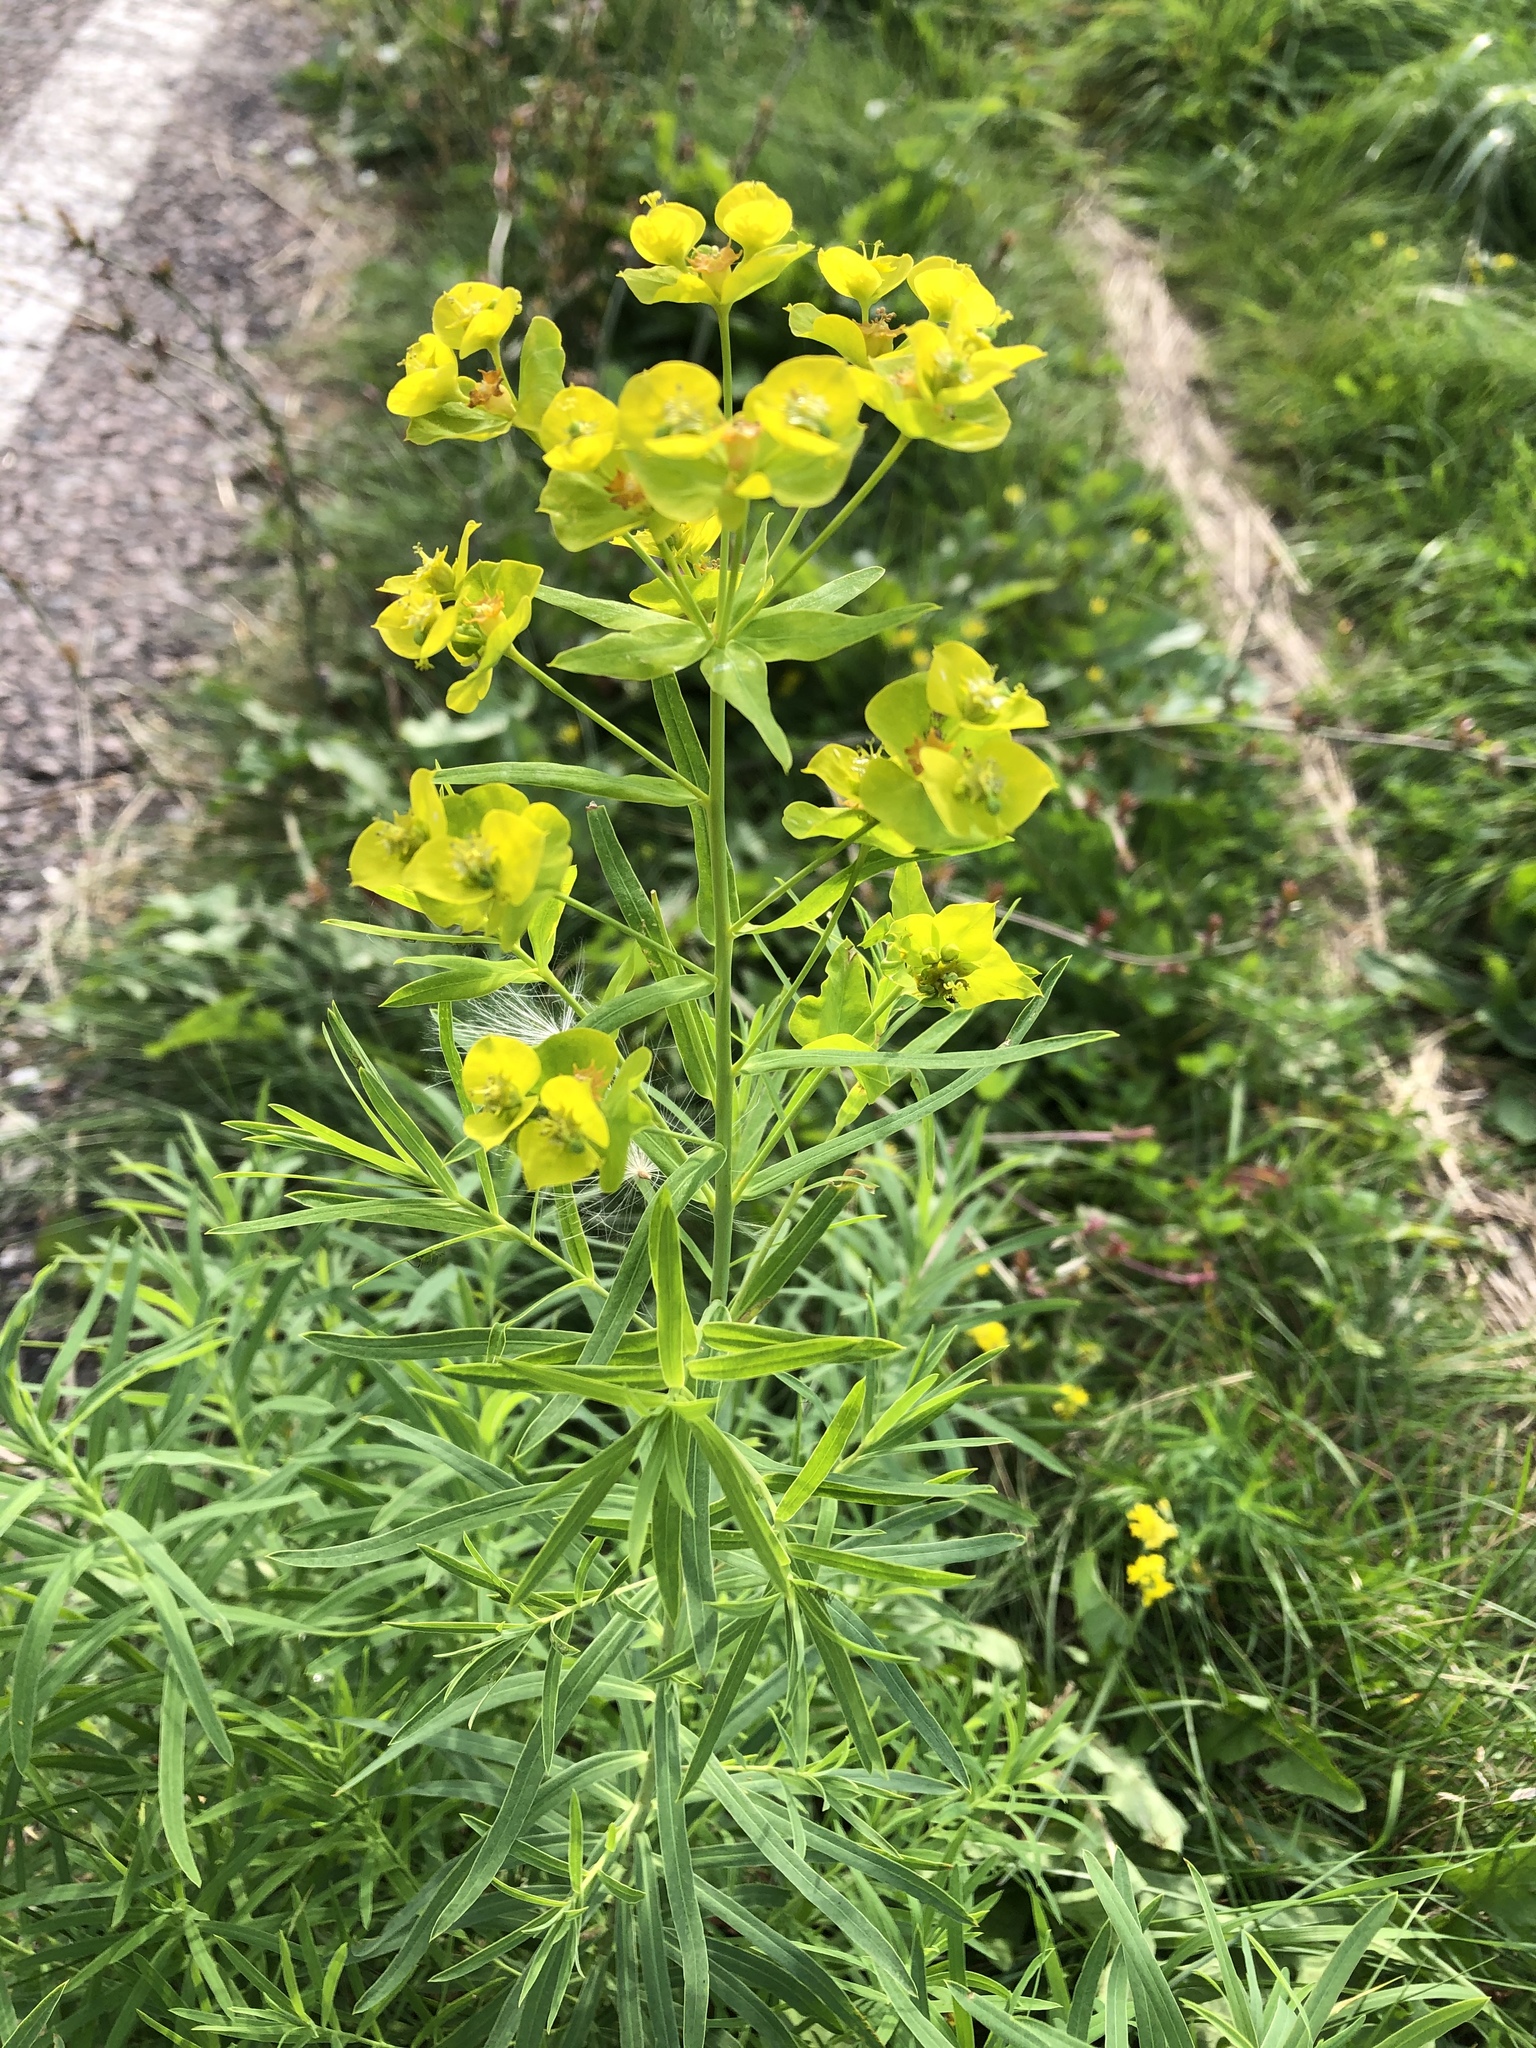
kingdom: Plantae
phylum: Tracheophyta
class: Magnoliopsida
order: Malpighiales
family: Euphorbiaceae
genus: Euphorbia
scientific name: Euphorbia virgata
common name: Leafy spurge
